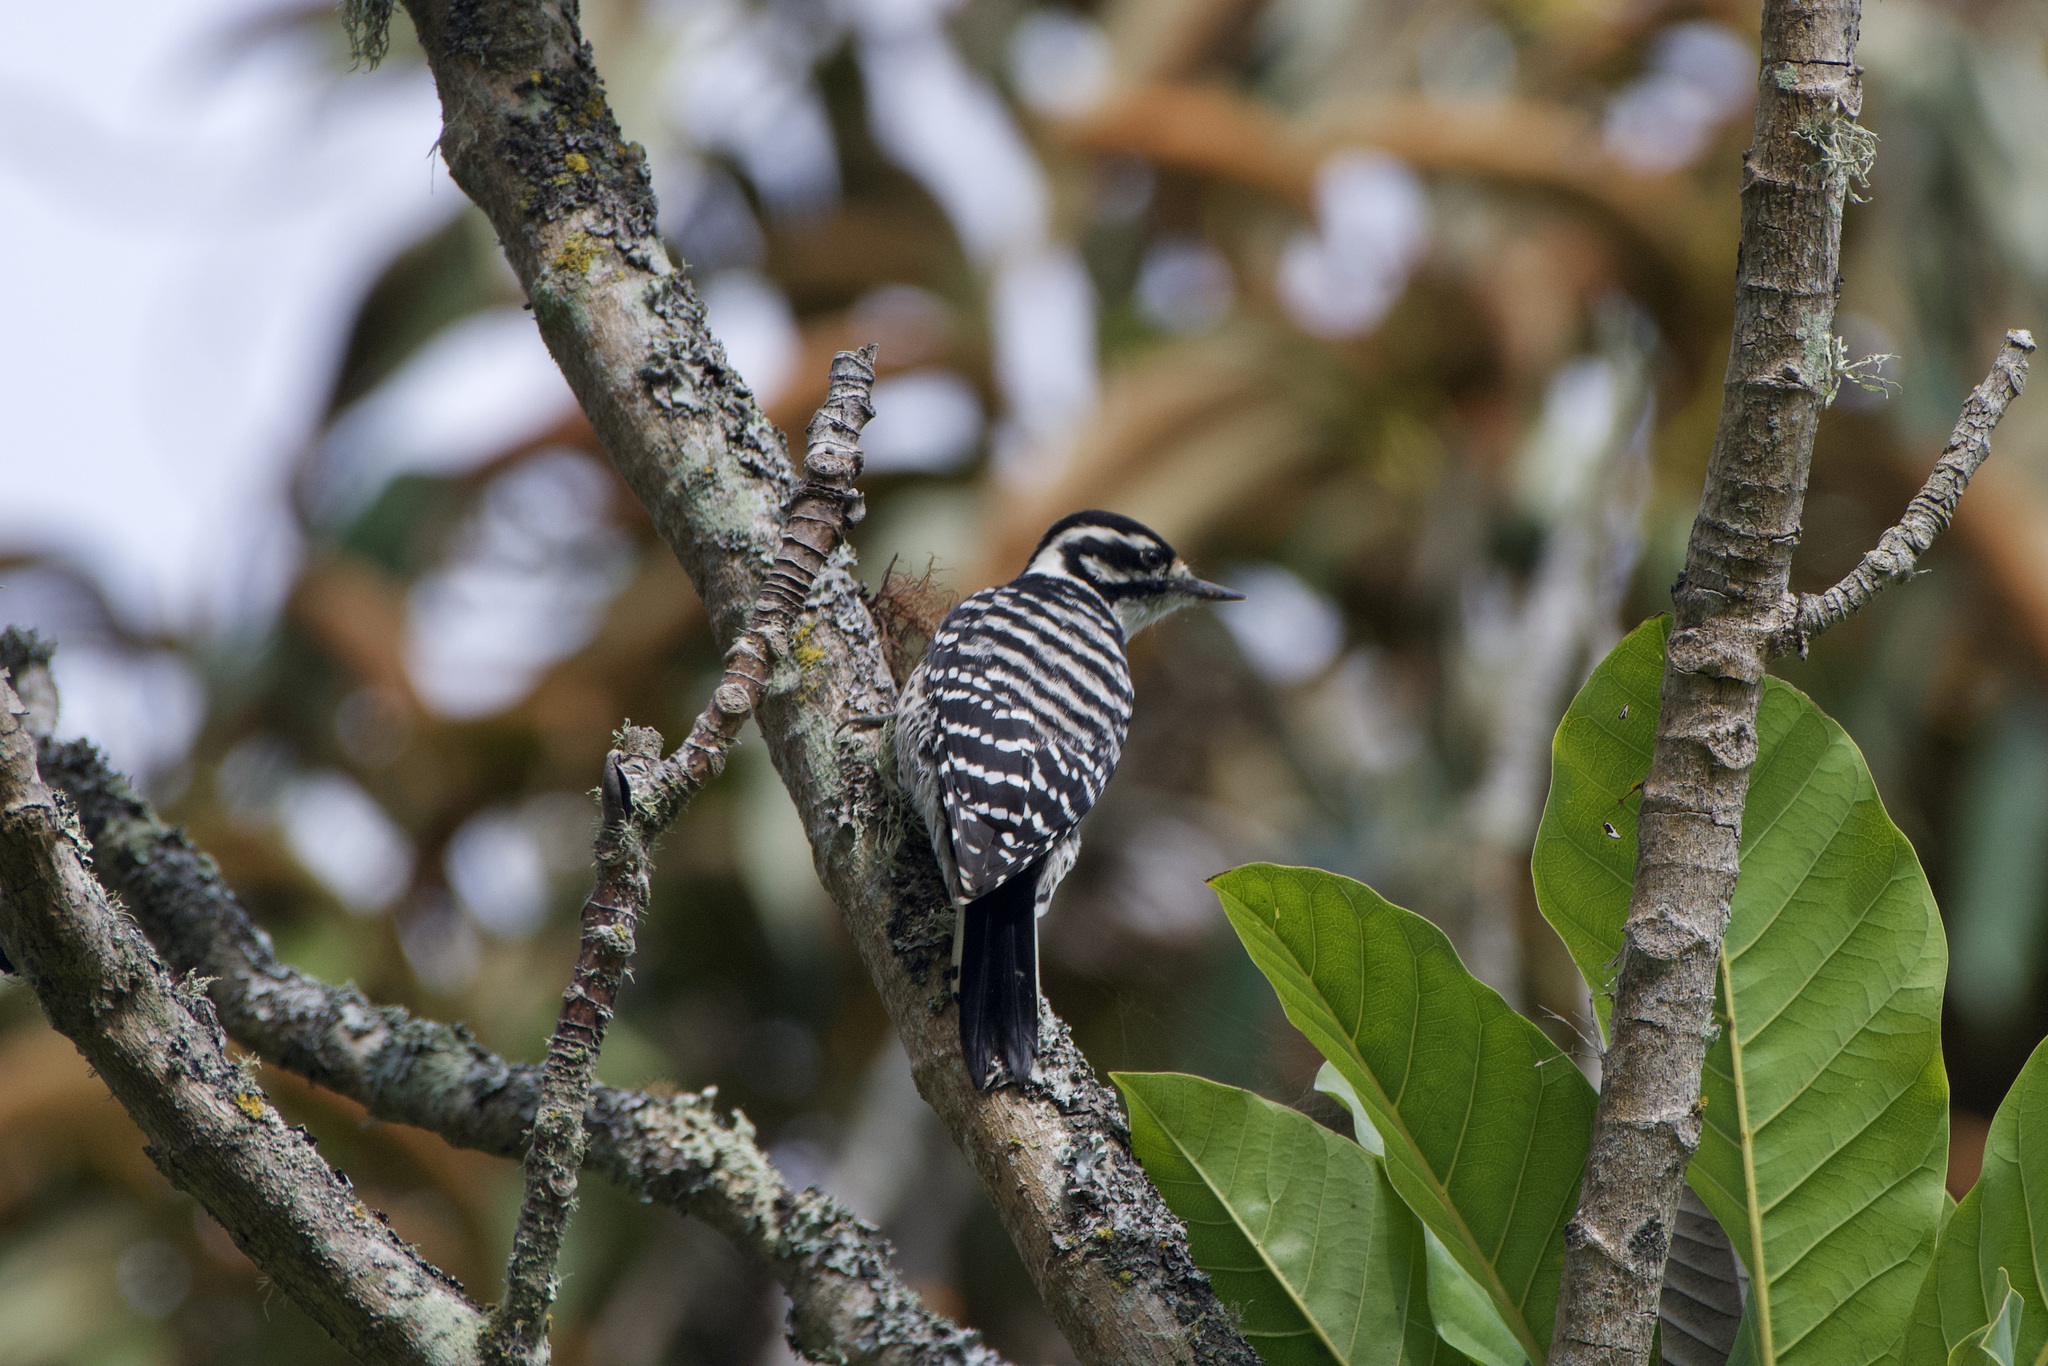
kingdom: Animalia
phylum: Chordata
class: Aves
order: Piciformes
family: Picidae
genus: Dryobates
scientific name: Dryobates nuttallii
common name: Nuttall's woodpecker
